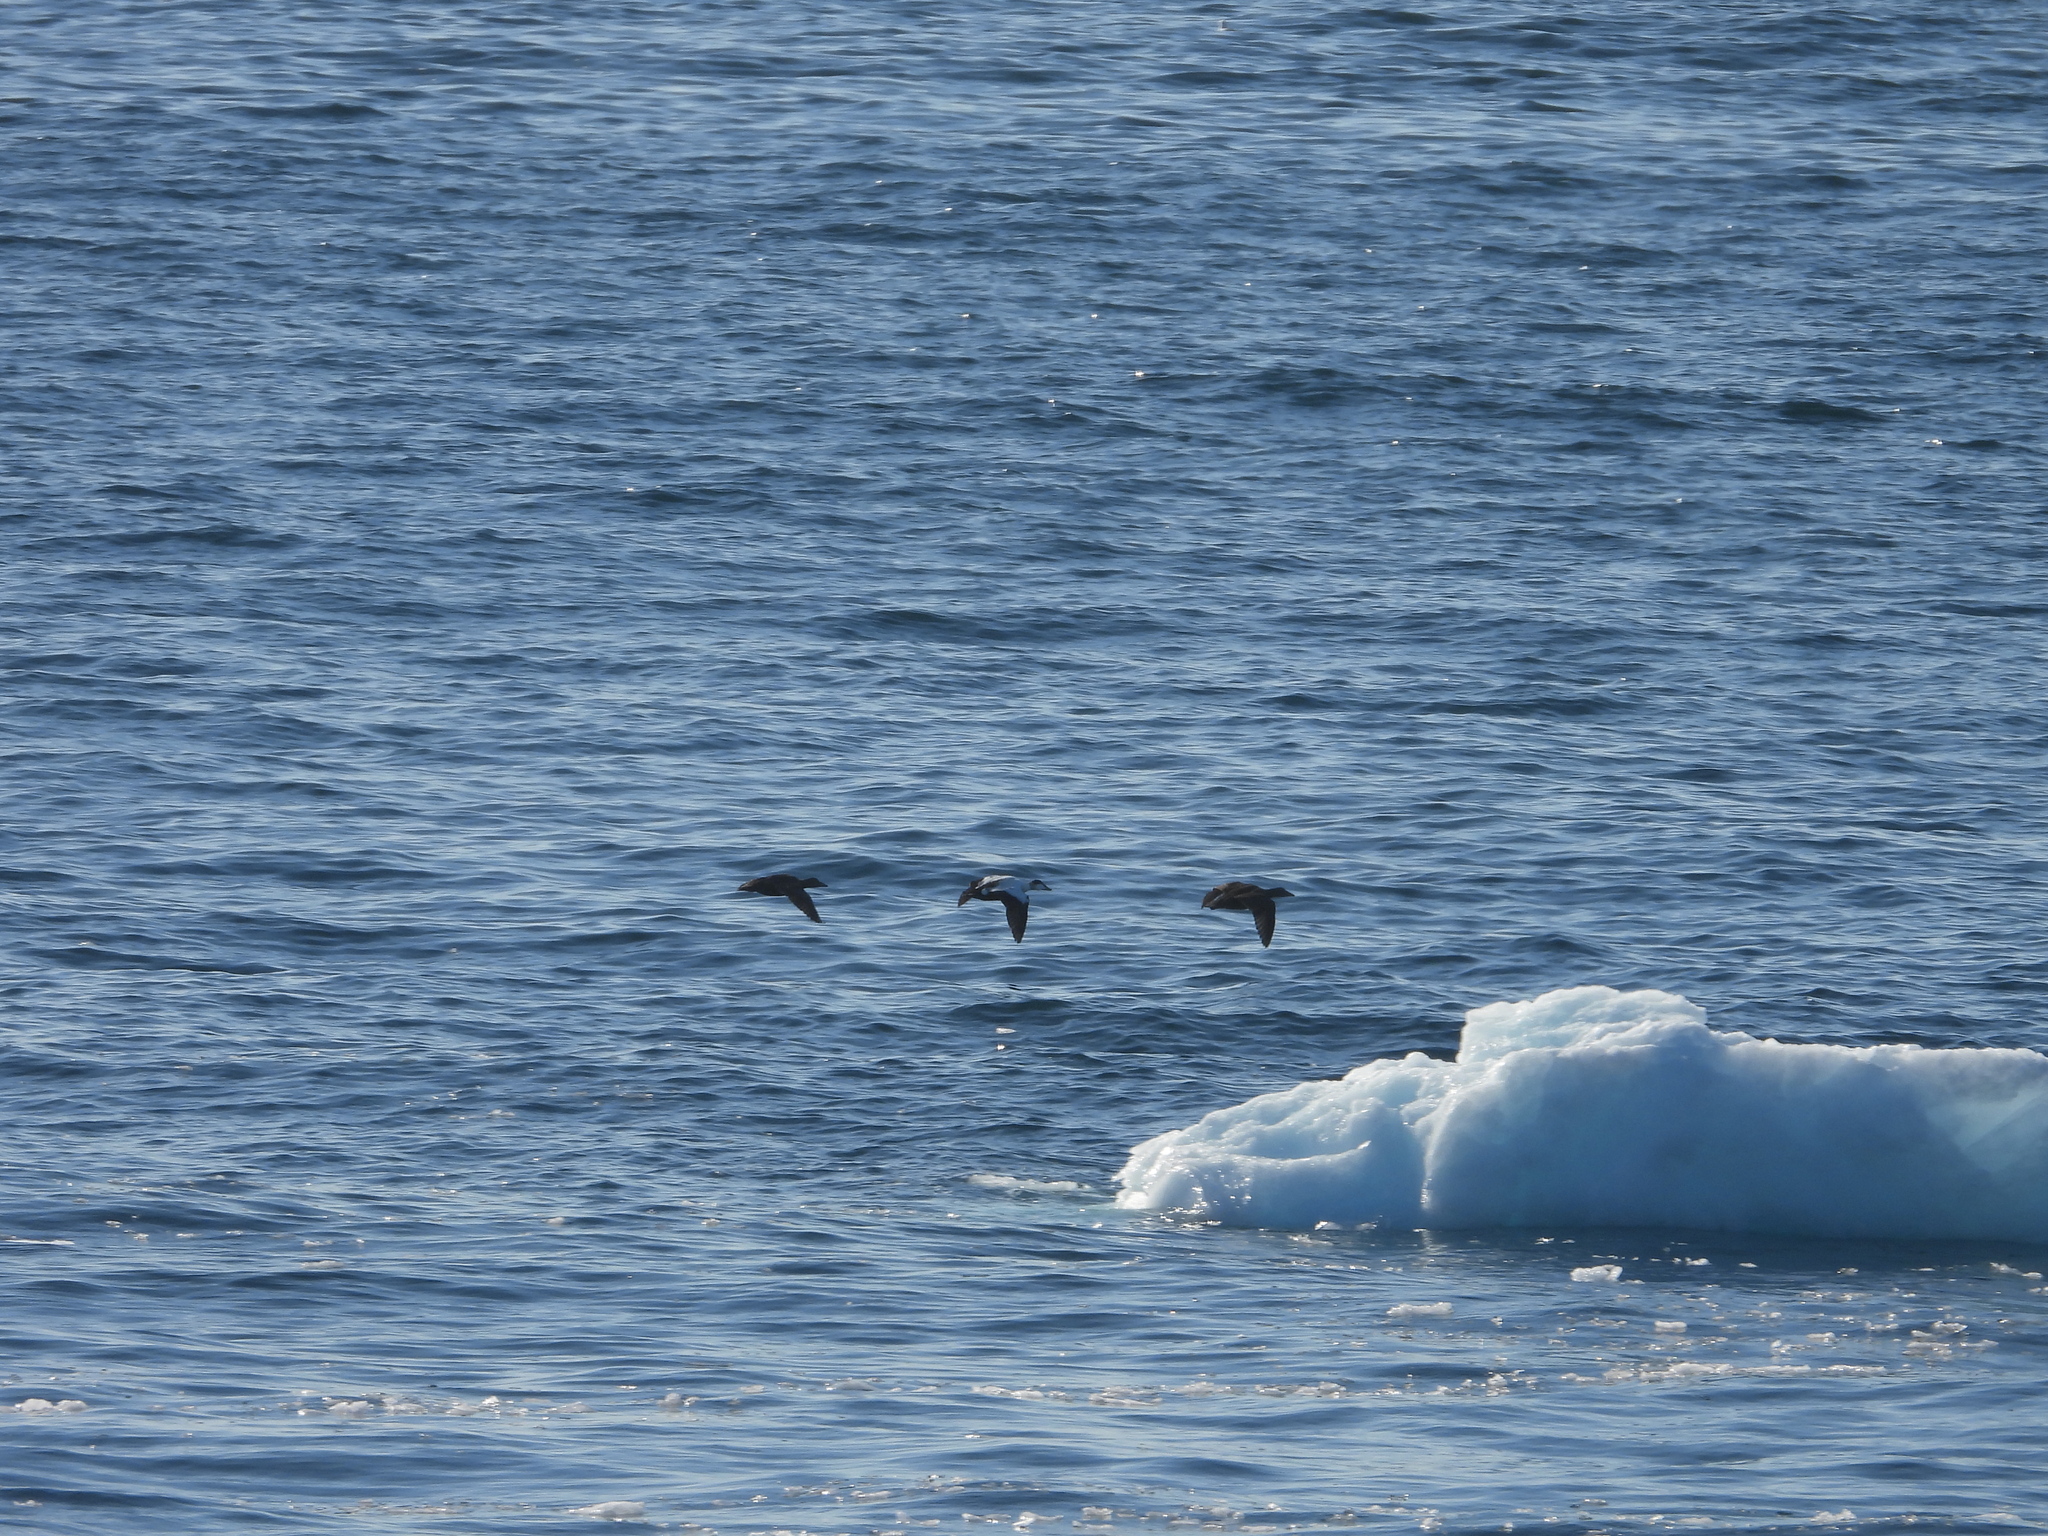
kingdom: Animalia
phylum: Chordata
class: Aves
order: Anseriformes
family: Anatidae
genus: Somateria
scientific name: Somateria mollissima
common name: Common eider
